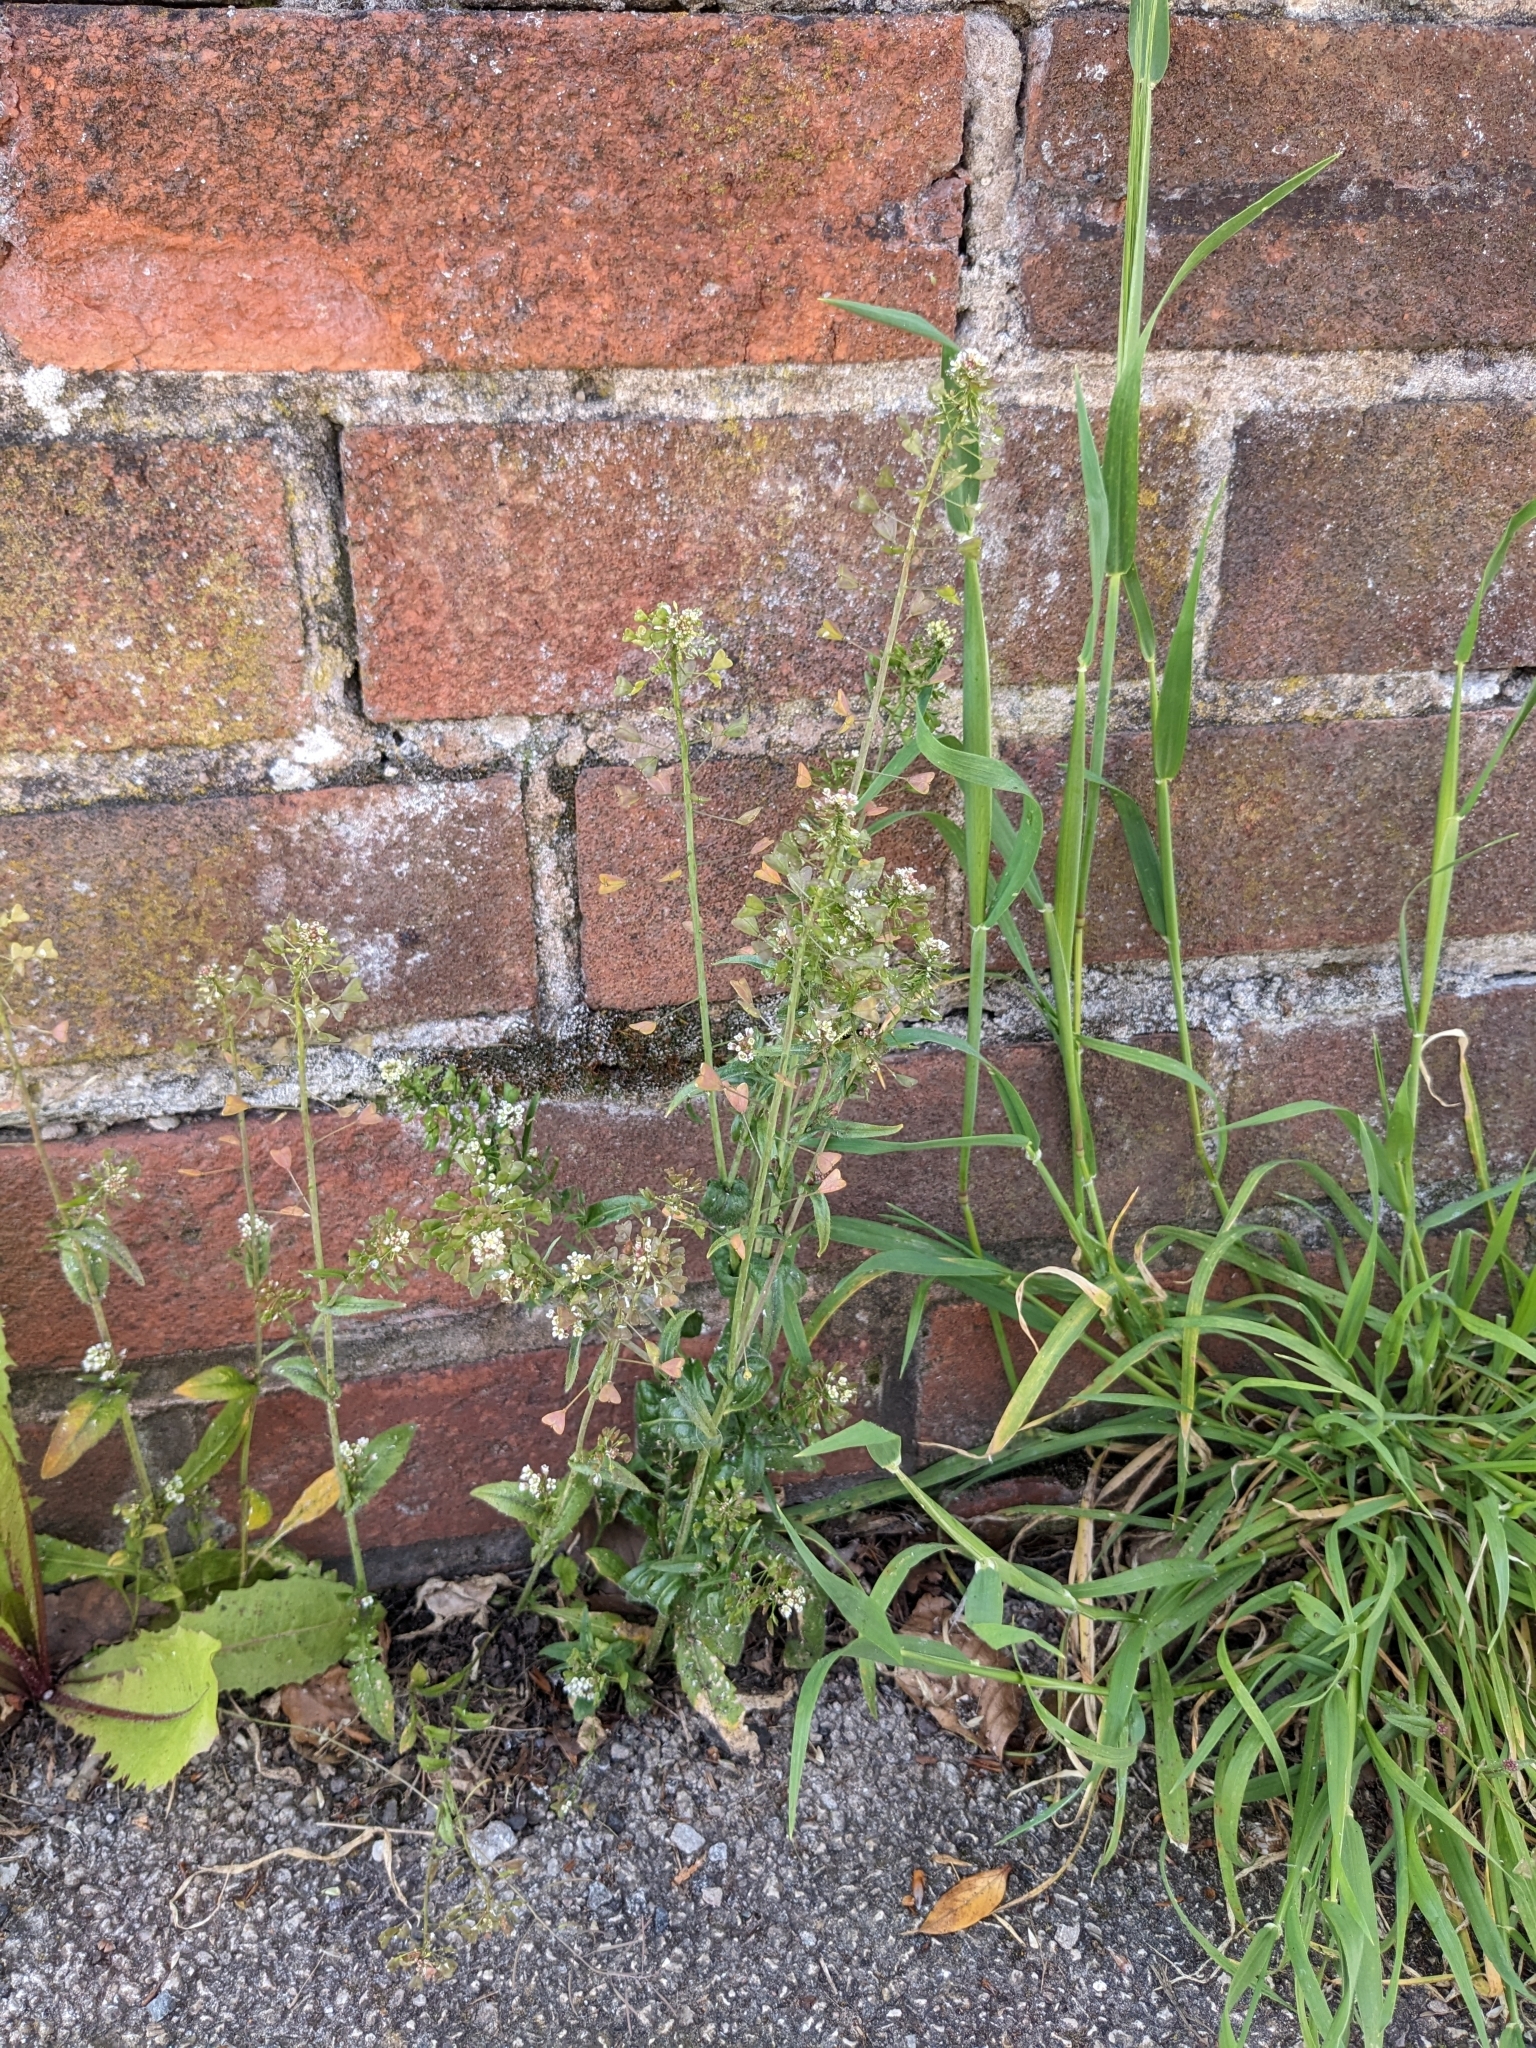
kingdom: Plantae
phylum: Tracheophyta
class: Magnoliopsida
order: Brassicales
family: Brassicaceae
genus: Capsella
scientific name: Capsella bursa-pastoris
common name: Shepherd's purse
